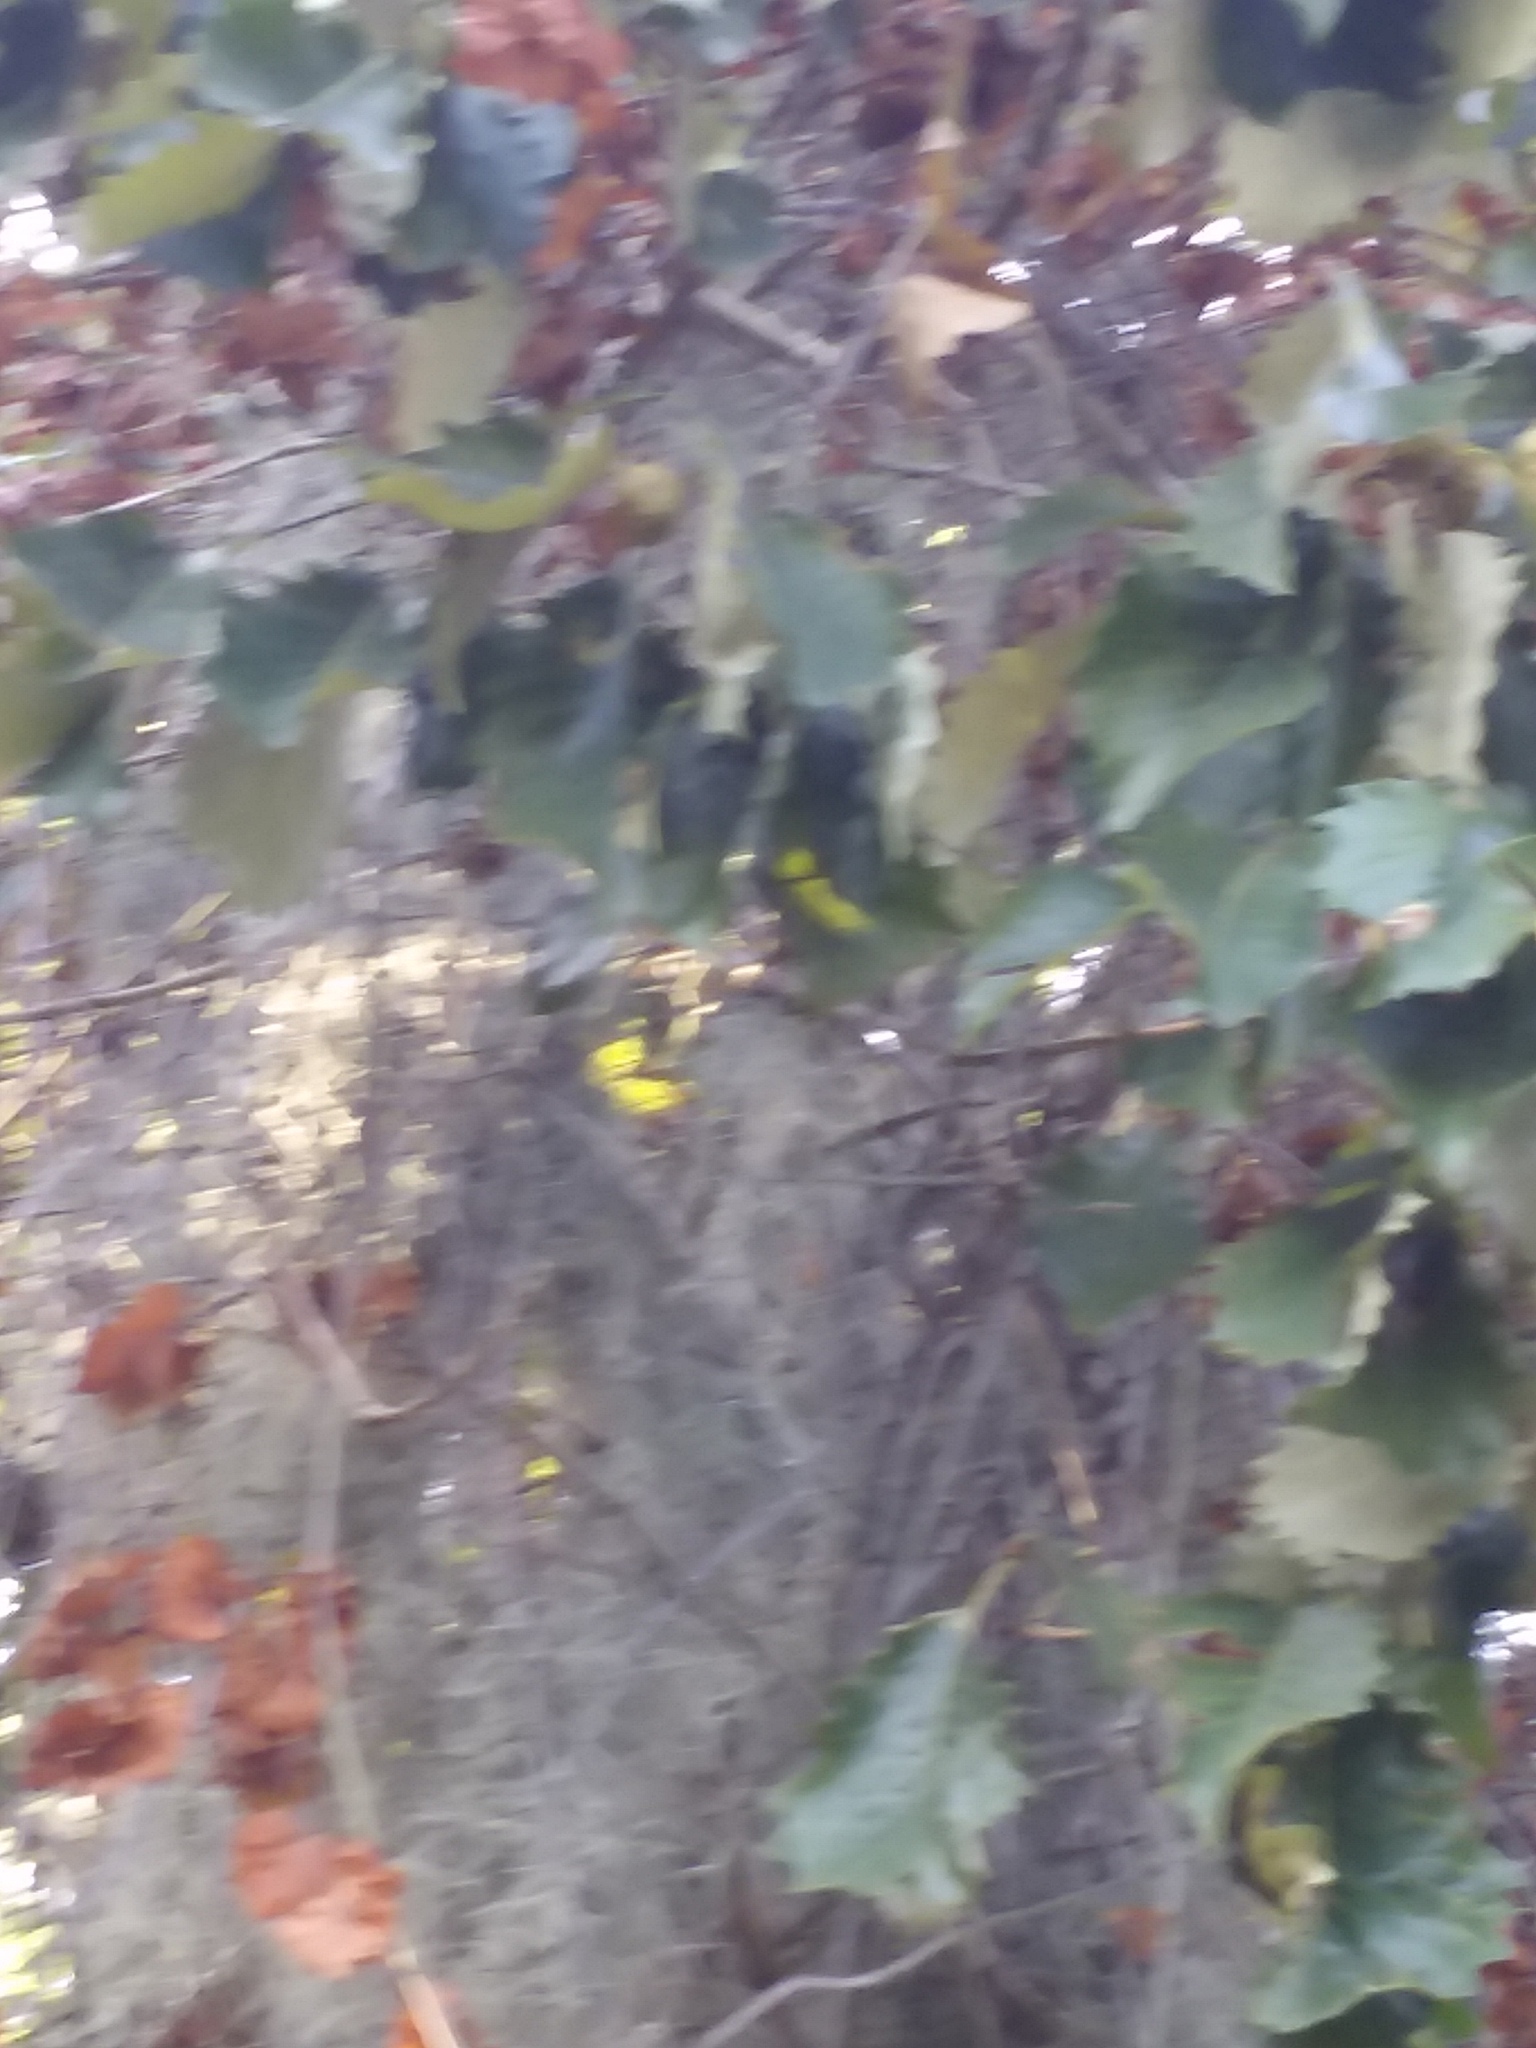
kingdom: Plantae
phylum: Tracheophyta
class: Liliopsida
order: Poales
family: Bromeliaceae
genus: Tillandsia
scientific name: Tillandsia usneoides
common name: Spanish moss
